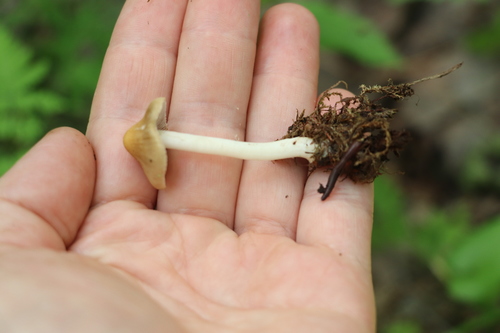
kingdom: Fungi
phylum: Basidiomycota
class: Agaricomycetes
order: Agaricales
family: Inocybaceae
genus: Inocybe
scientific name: Inocybe mixtilis
